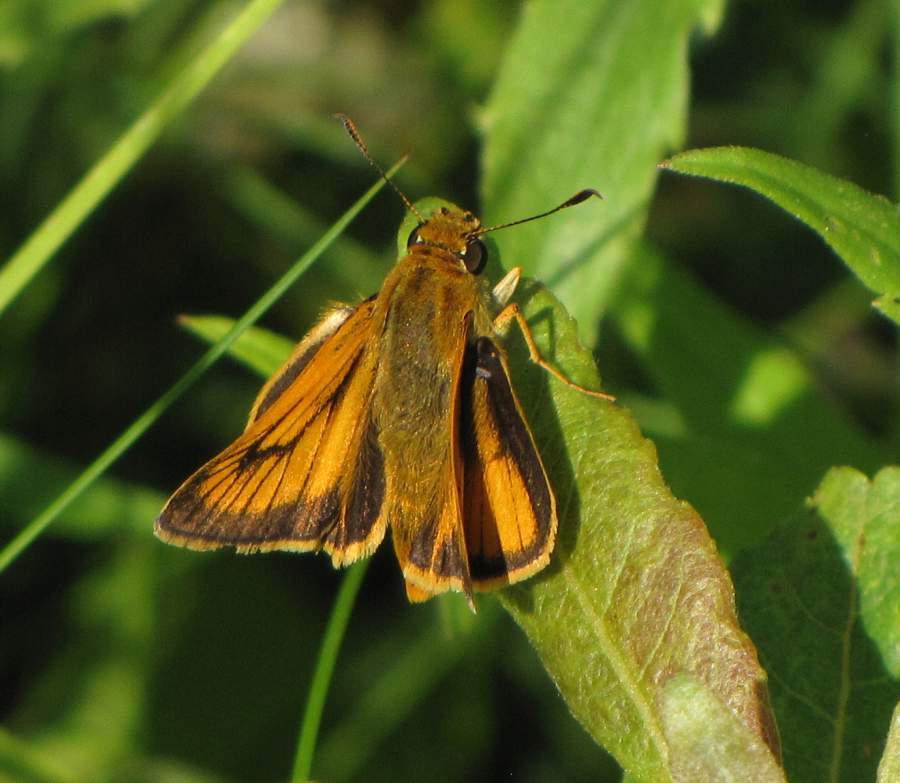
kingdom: Animalia
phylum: Arthropoda
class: Insecta
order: Lepidoptera
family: Hesperiidae
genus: Atrytone
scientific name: Atrytone delaware
